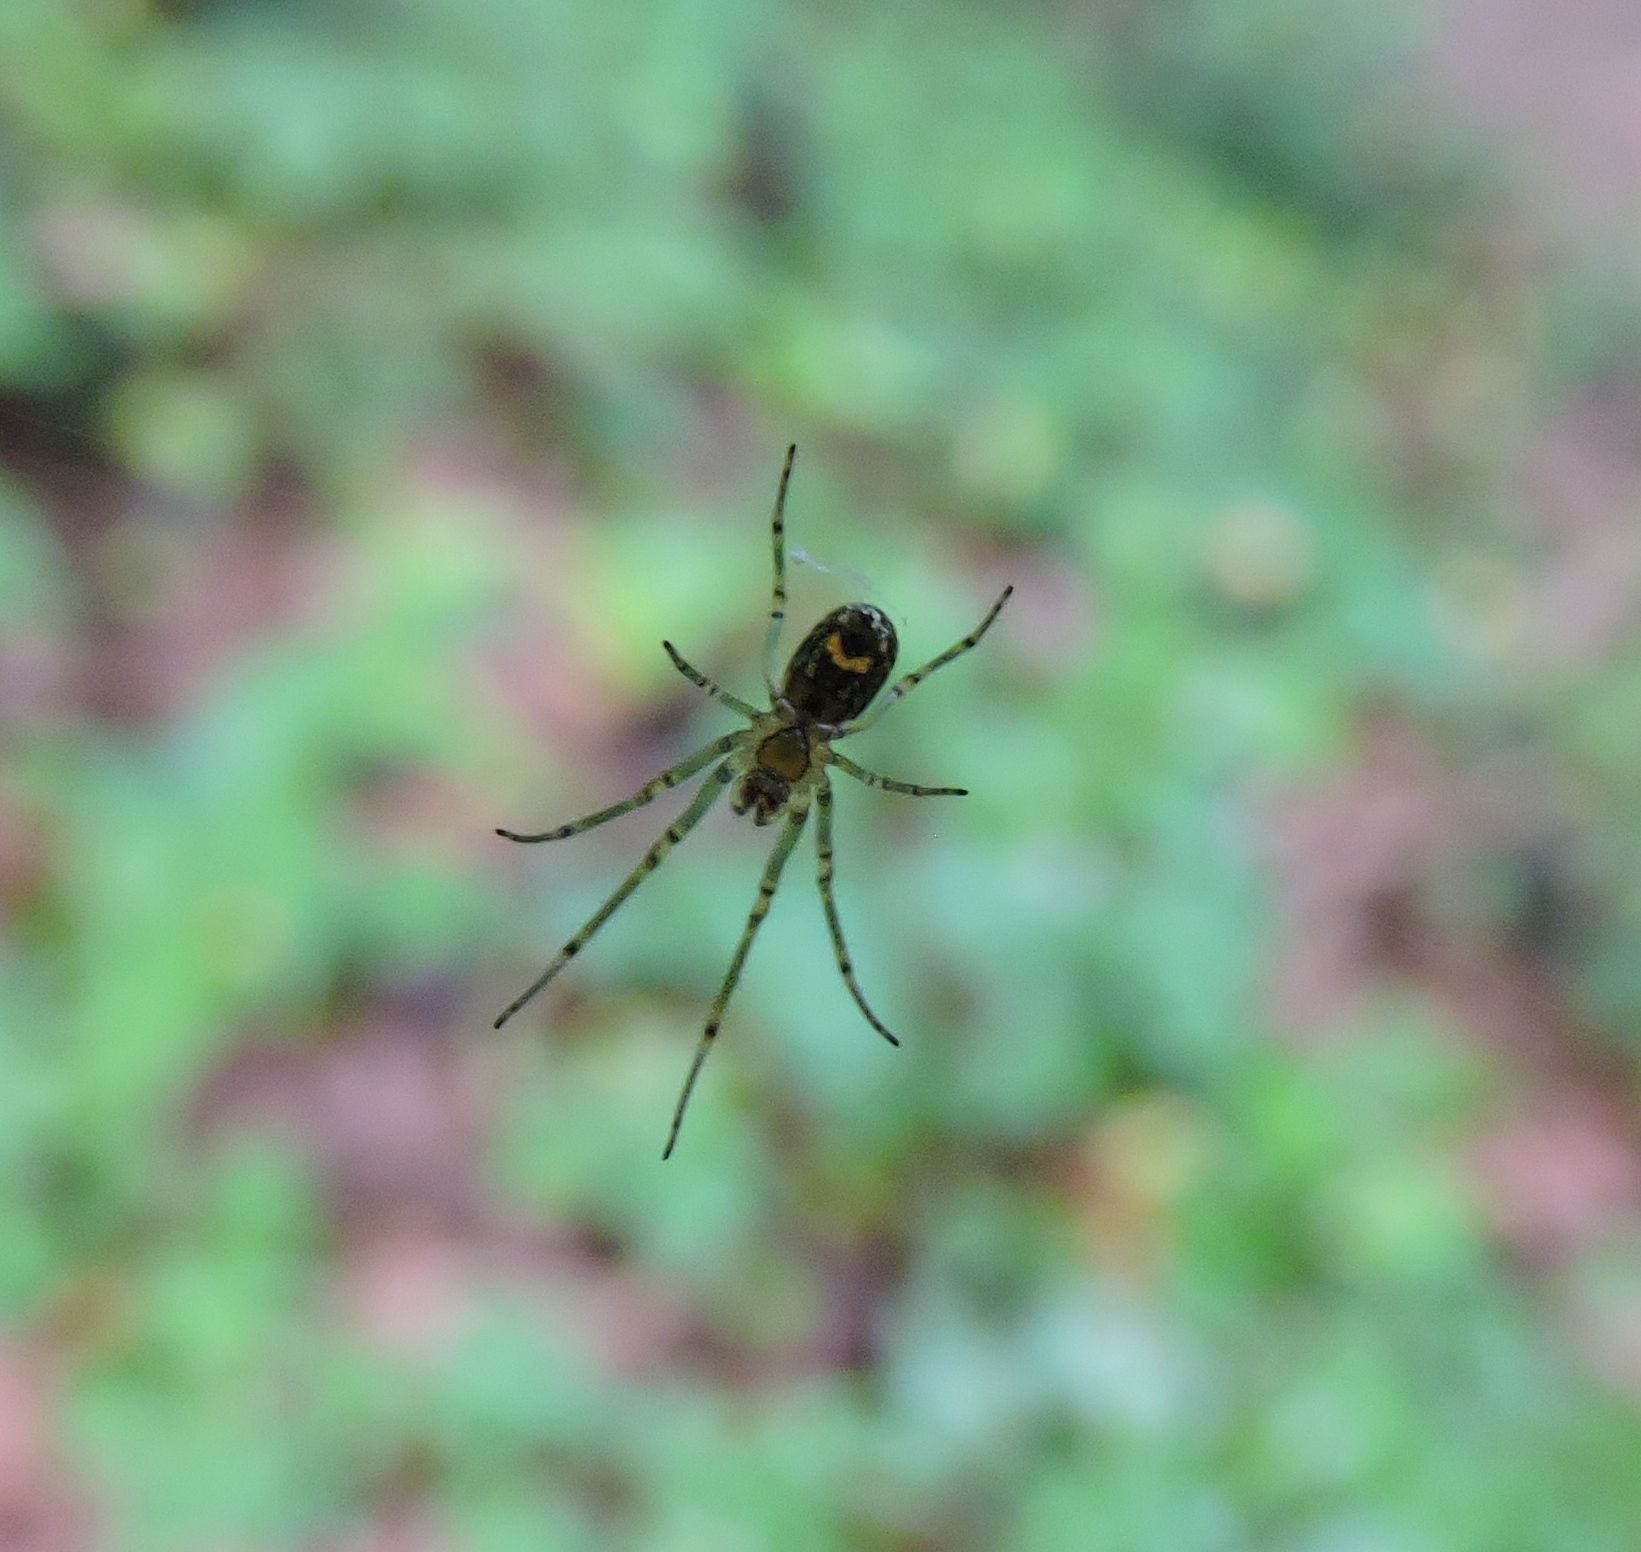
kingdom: Animalia
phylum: Arthropoda
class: Arachnida
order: Araneae
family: Tetragnathidae
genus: Leucauge
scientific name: Leucauge venusta
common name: Longjawed orb weavers
